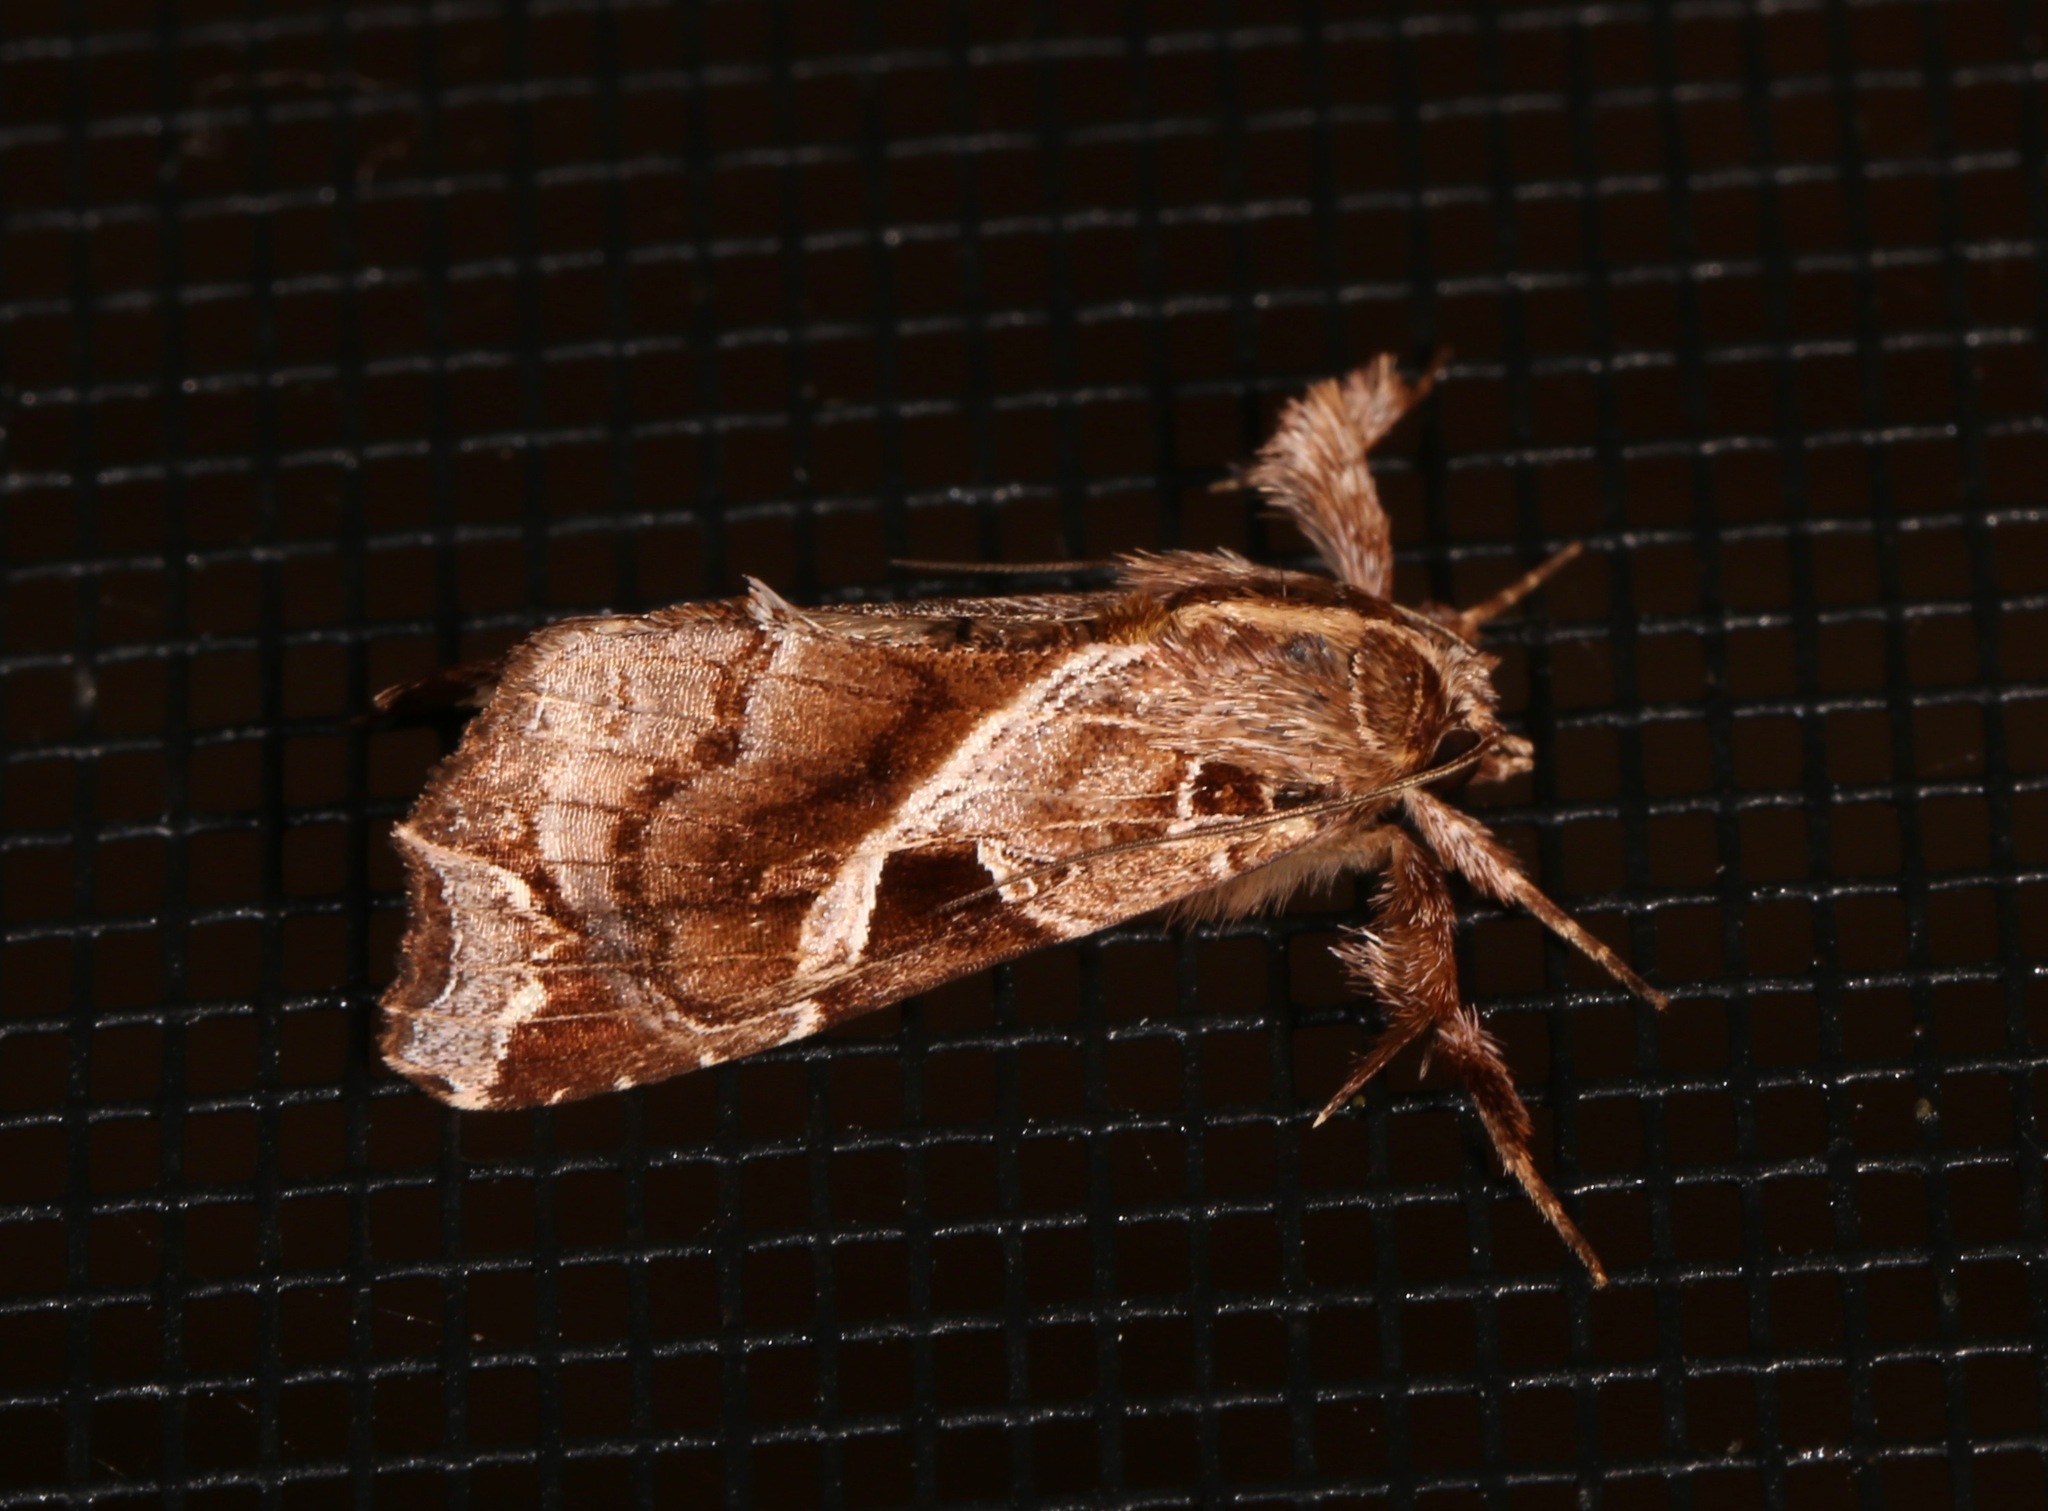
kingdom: Animalia
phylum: Arthropoda
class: Insecta
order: Lepidoptera
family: Noctuidae
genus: Callopistria
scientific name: Callopistria floridensis
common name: Florida fern moth
